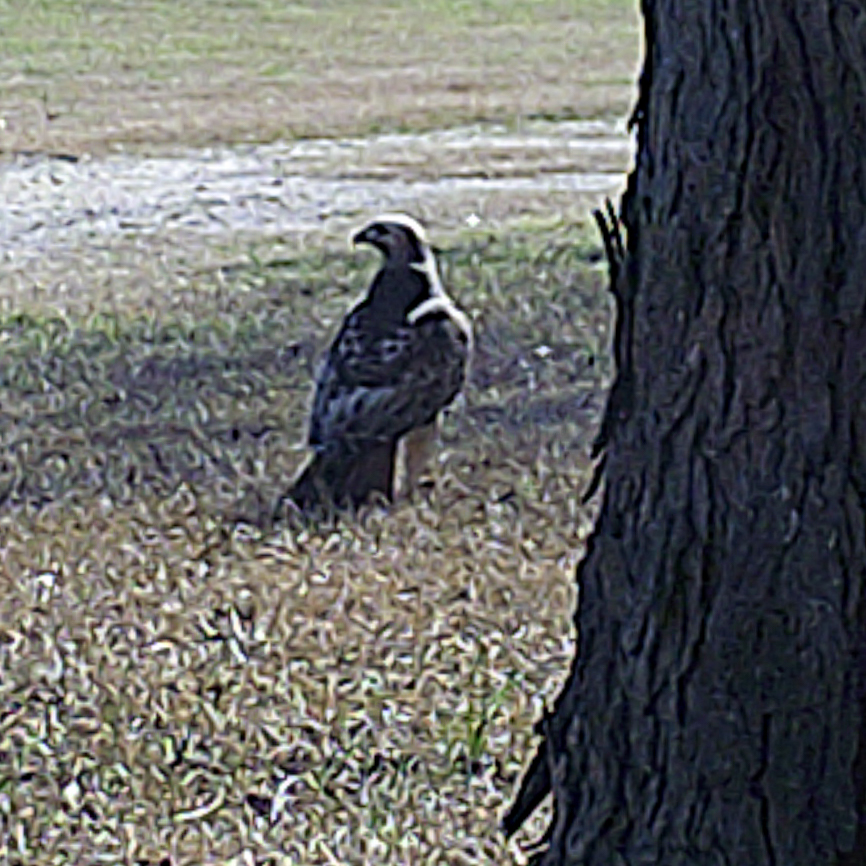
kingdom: Animalia
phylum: Chordata
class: Aves
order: Accipitriformes
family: Accipitridae
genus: Buteo
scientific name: Buteo jamaicensis
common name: Red-tailed hawk
